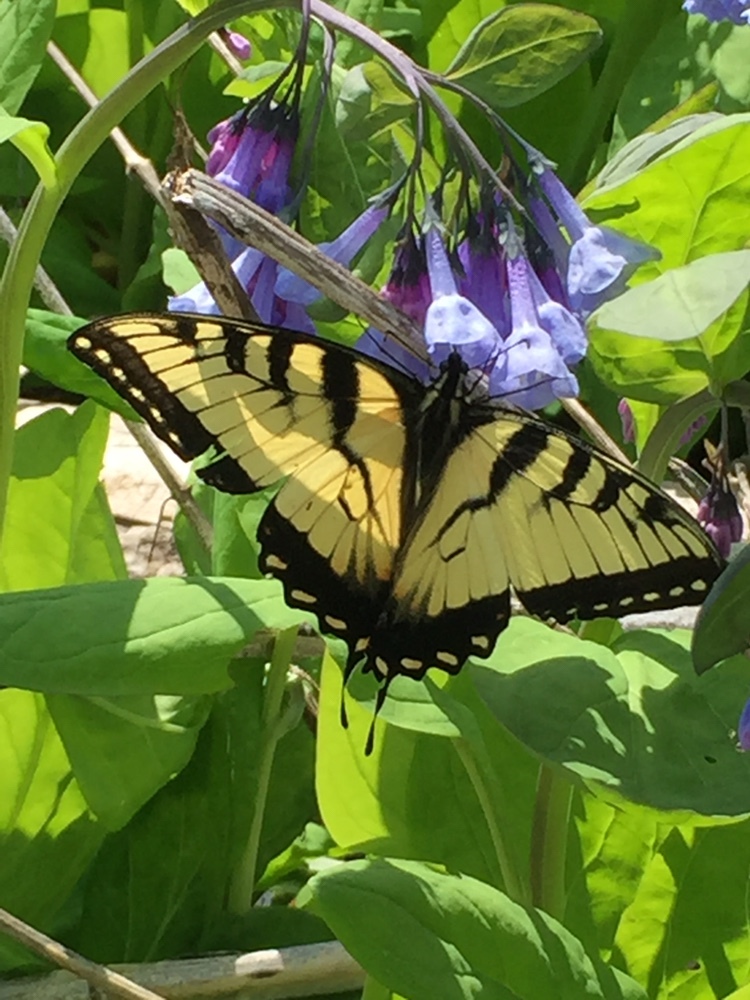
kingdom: Animalia
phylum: Arthropoda
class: Insecta
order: Lepidoptera
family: Papilionidae
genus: Papilio
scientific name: Papilio glaucus
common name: Tiger swallowtail
